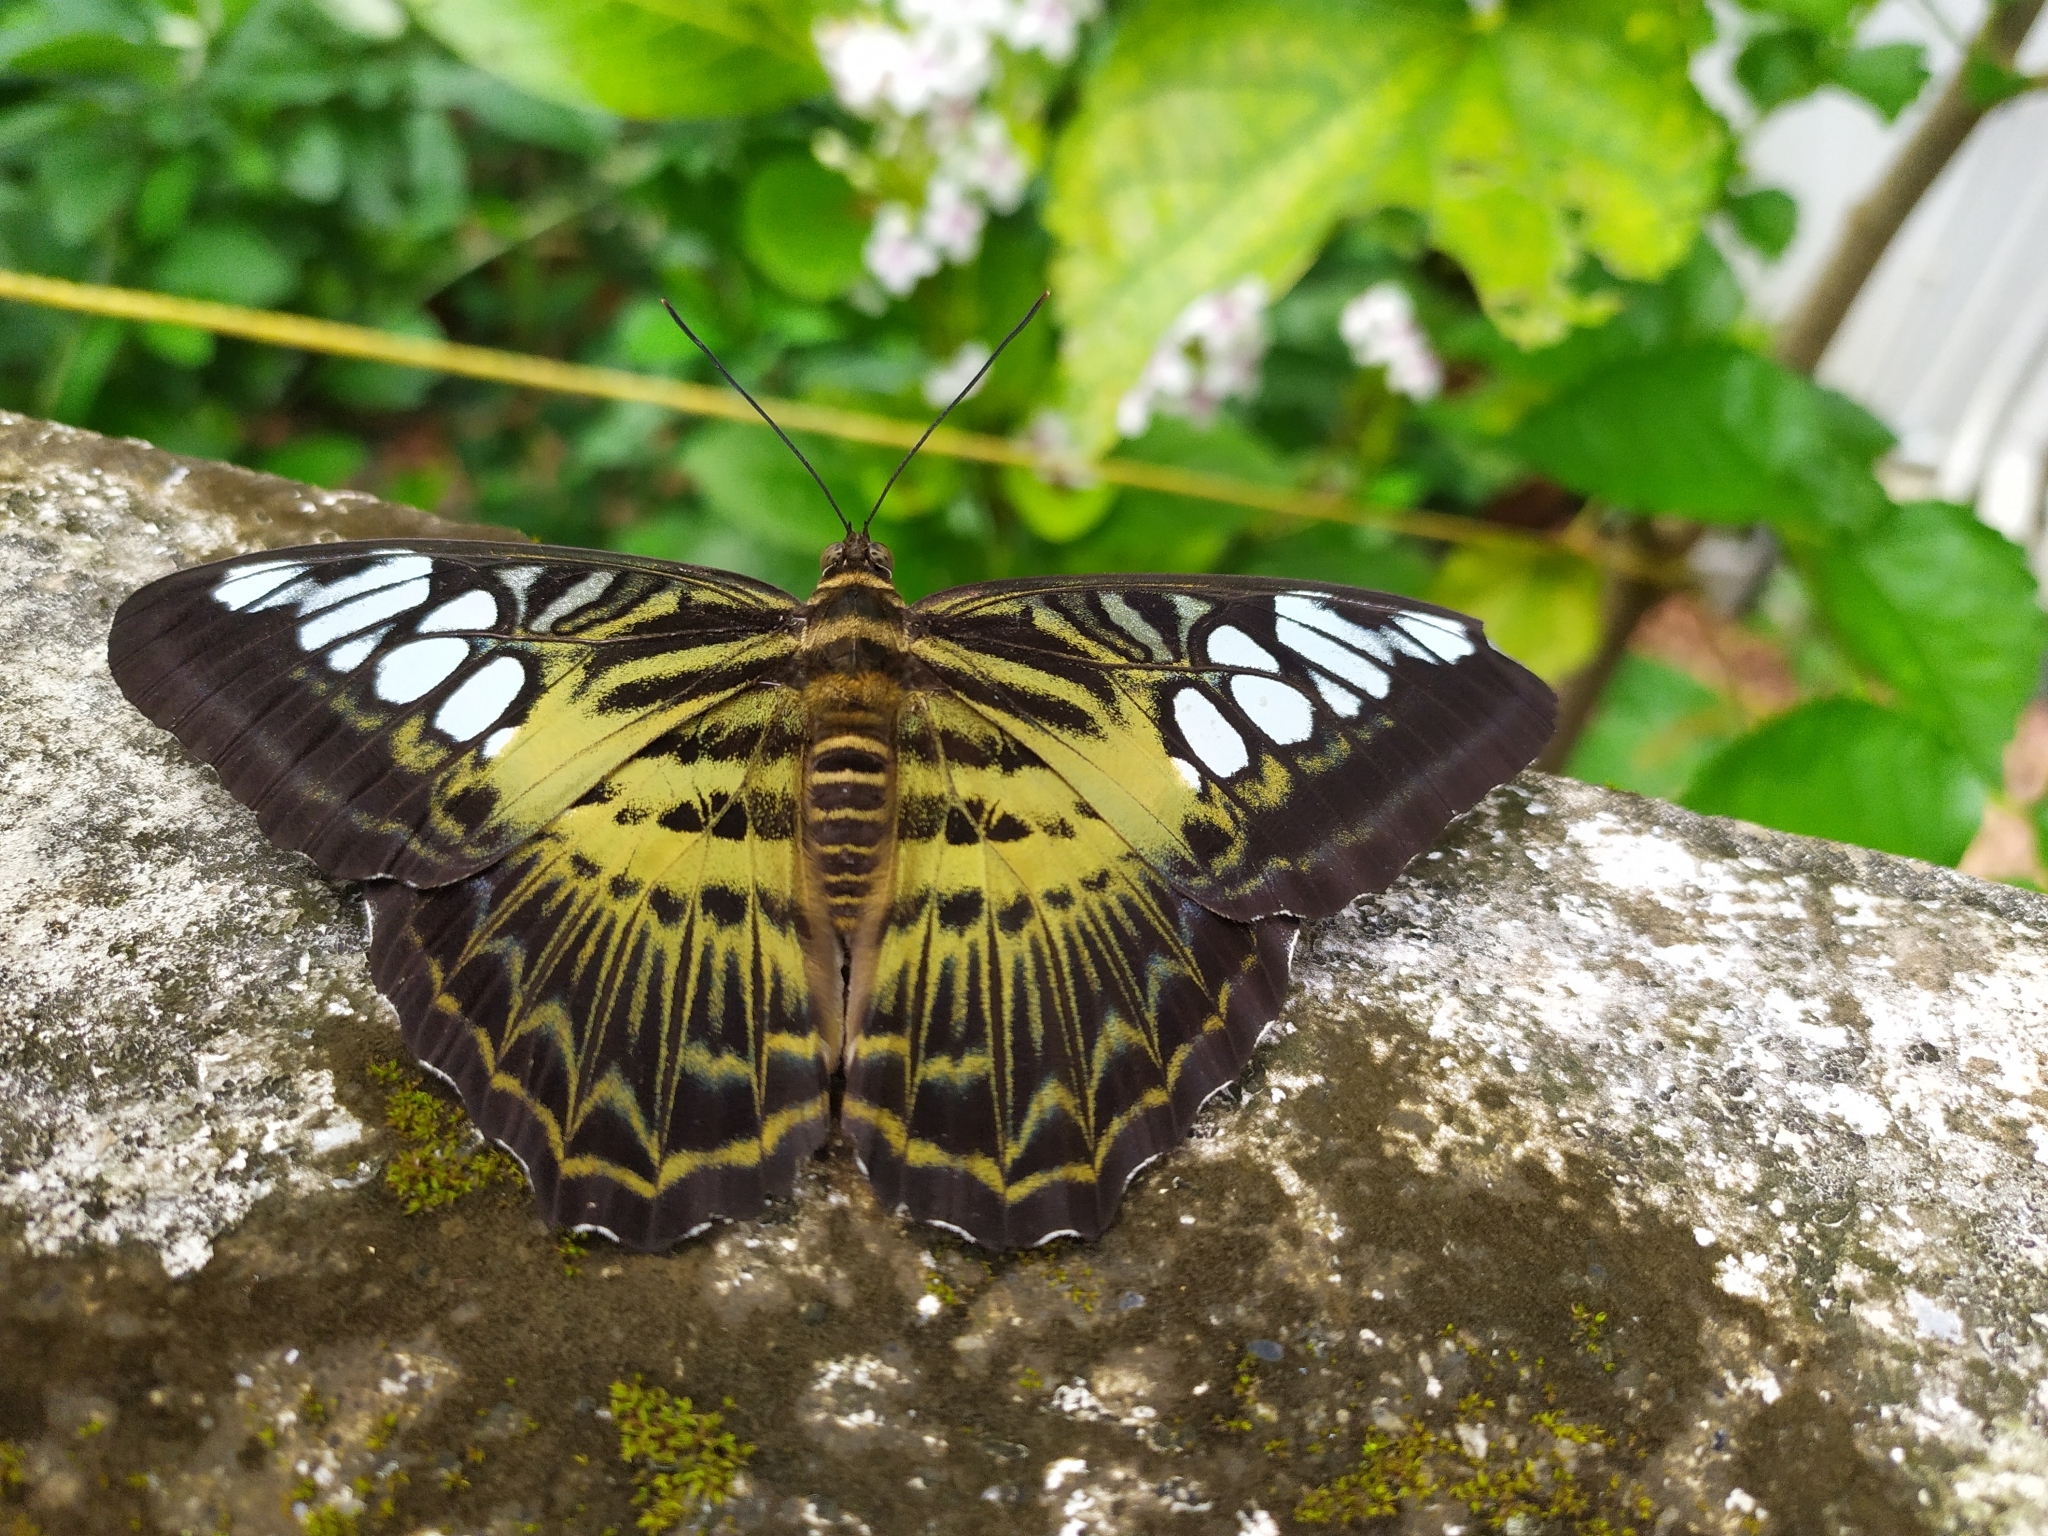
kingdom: Animalia
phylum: Arthropoda
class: Insecta
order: Lepidoptera
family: Nymphalidae
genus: Kallima
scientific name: Kallima sylvia
